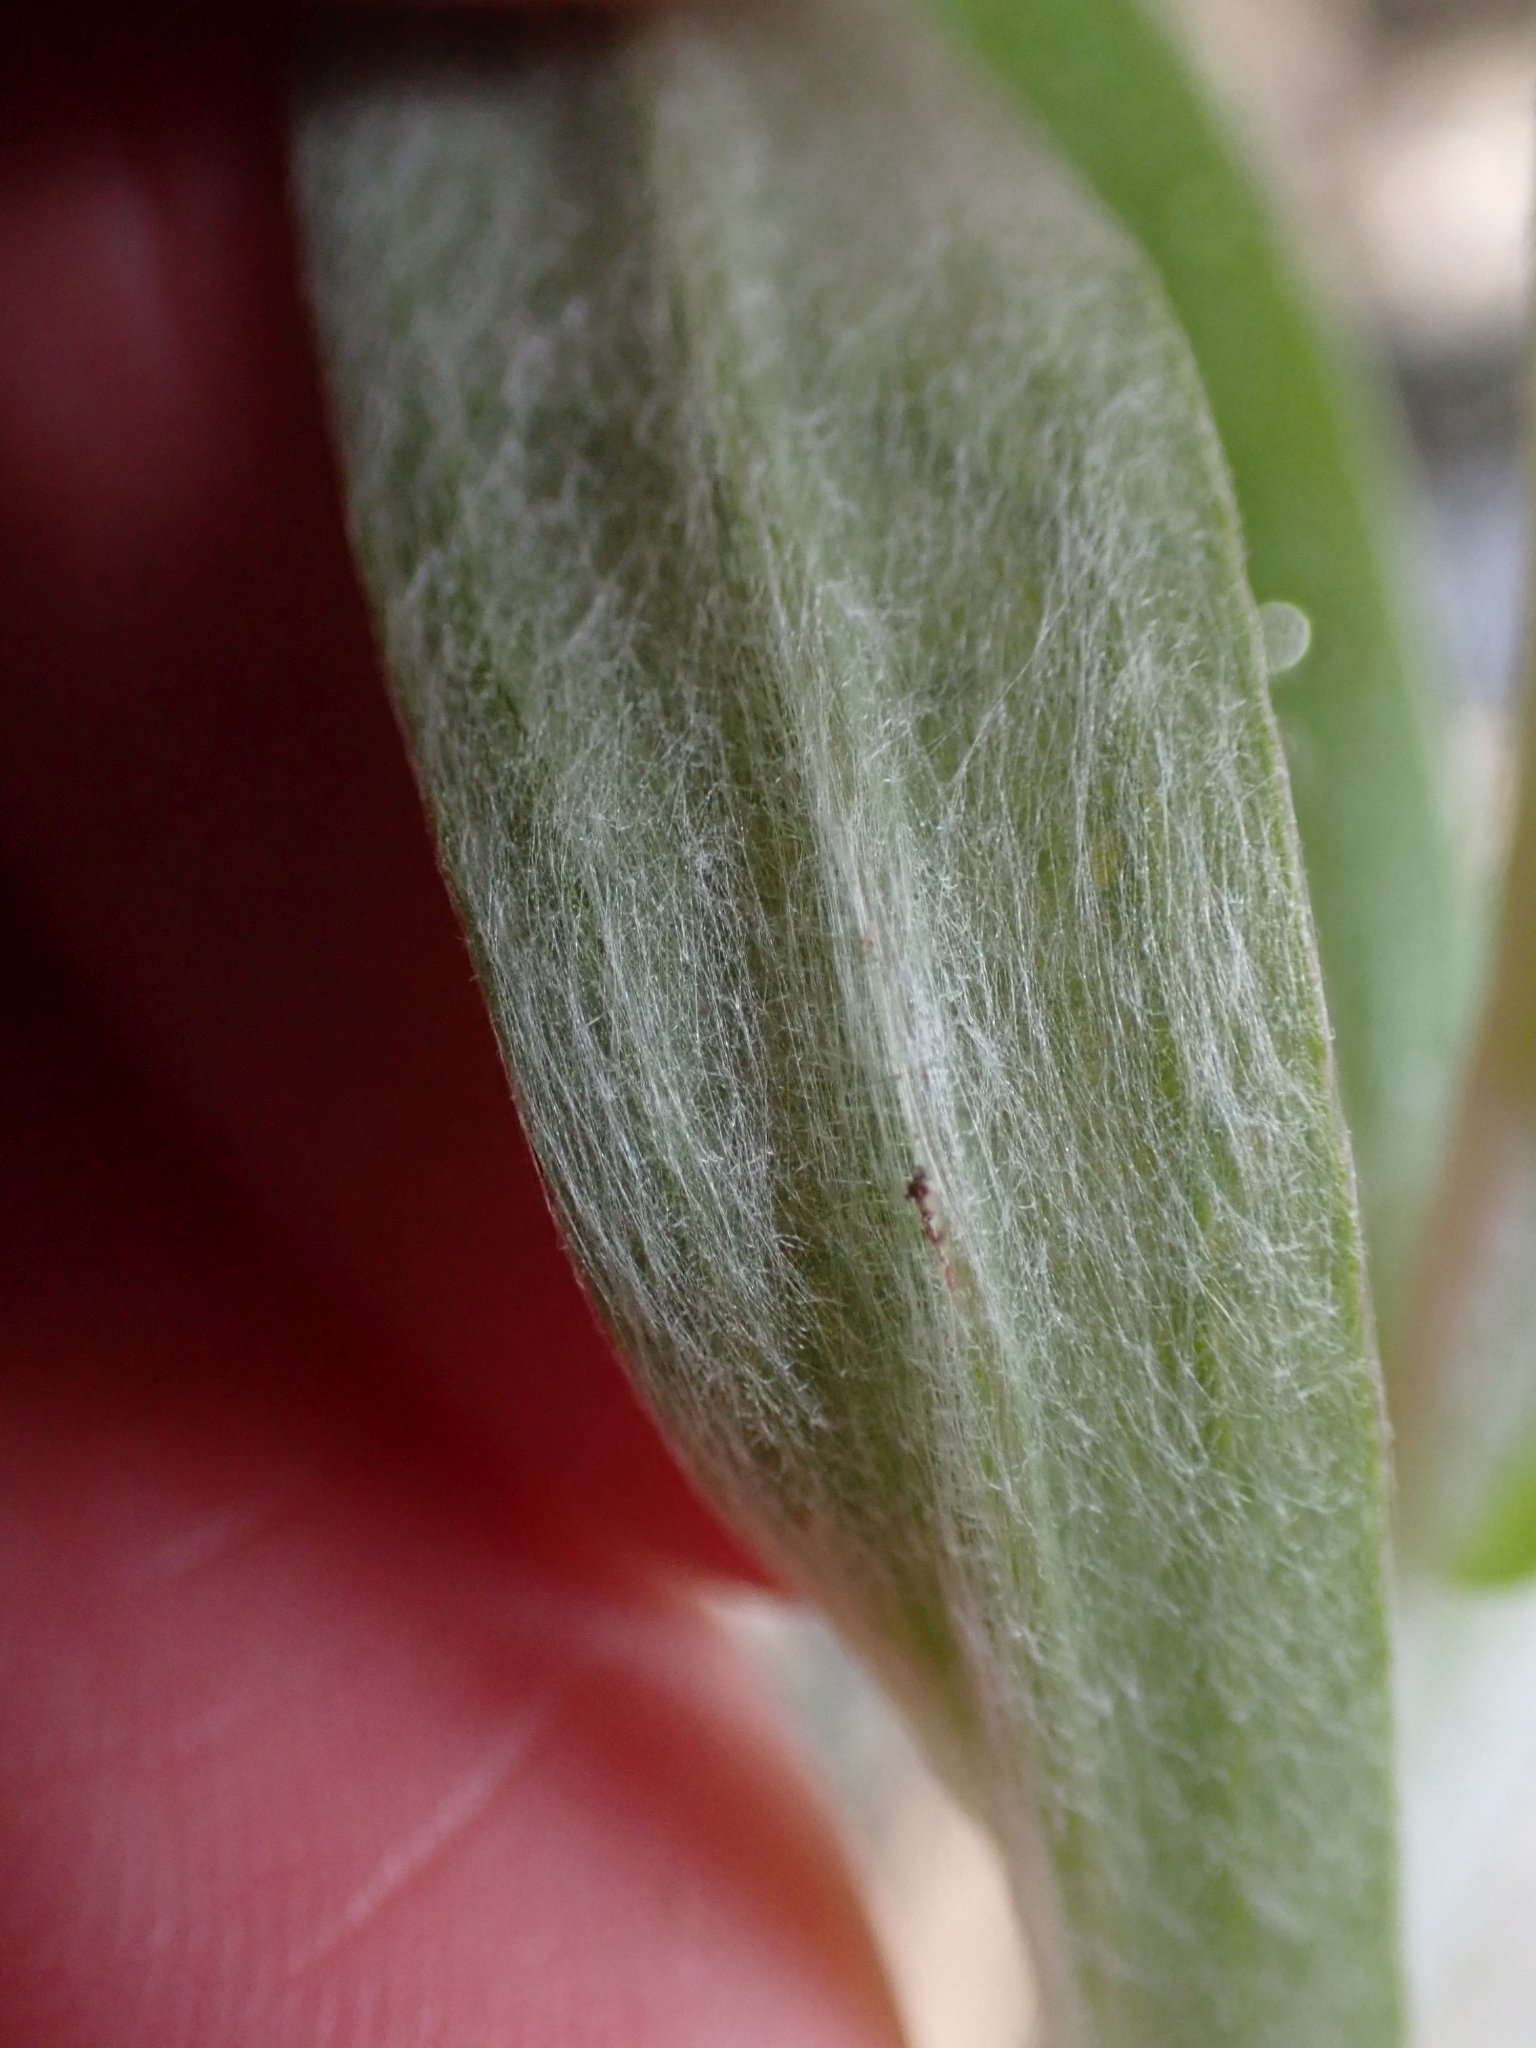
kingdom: Plantae
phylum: Tracheophyta
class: Magnoliopsida
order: Asterales
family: Asteraceae
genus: Anaphalis
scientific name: Anaphalis margaritacea
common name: Pearly everlasting
